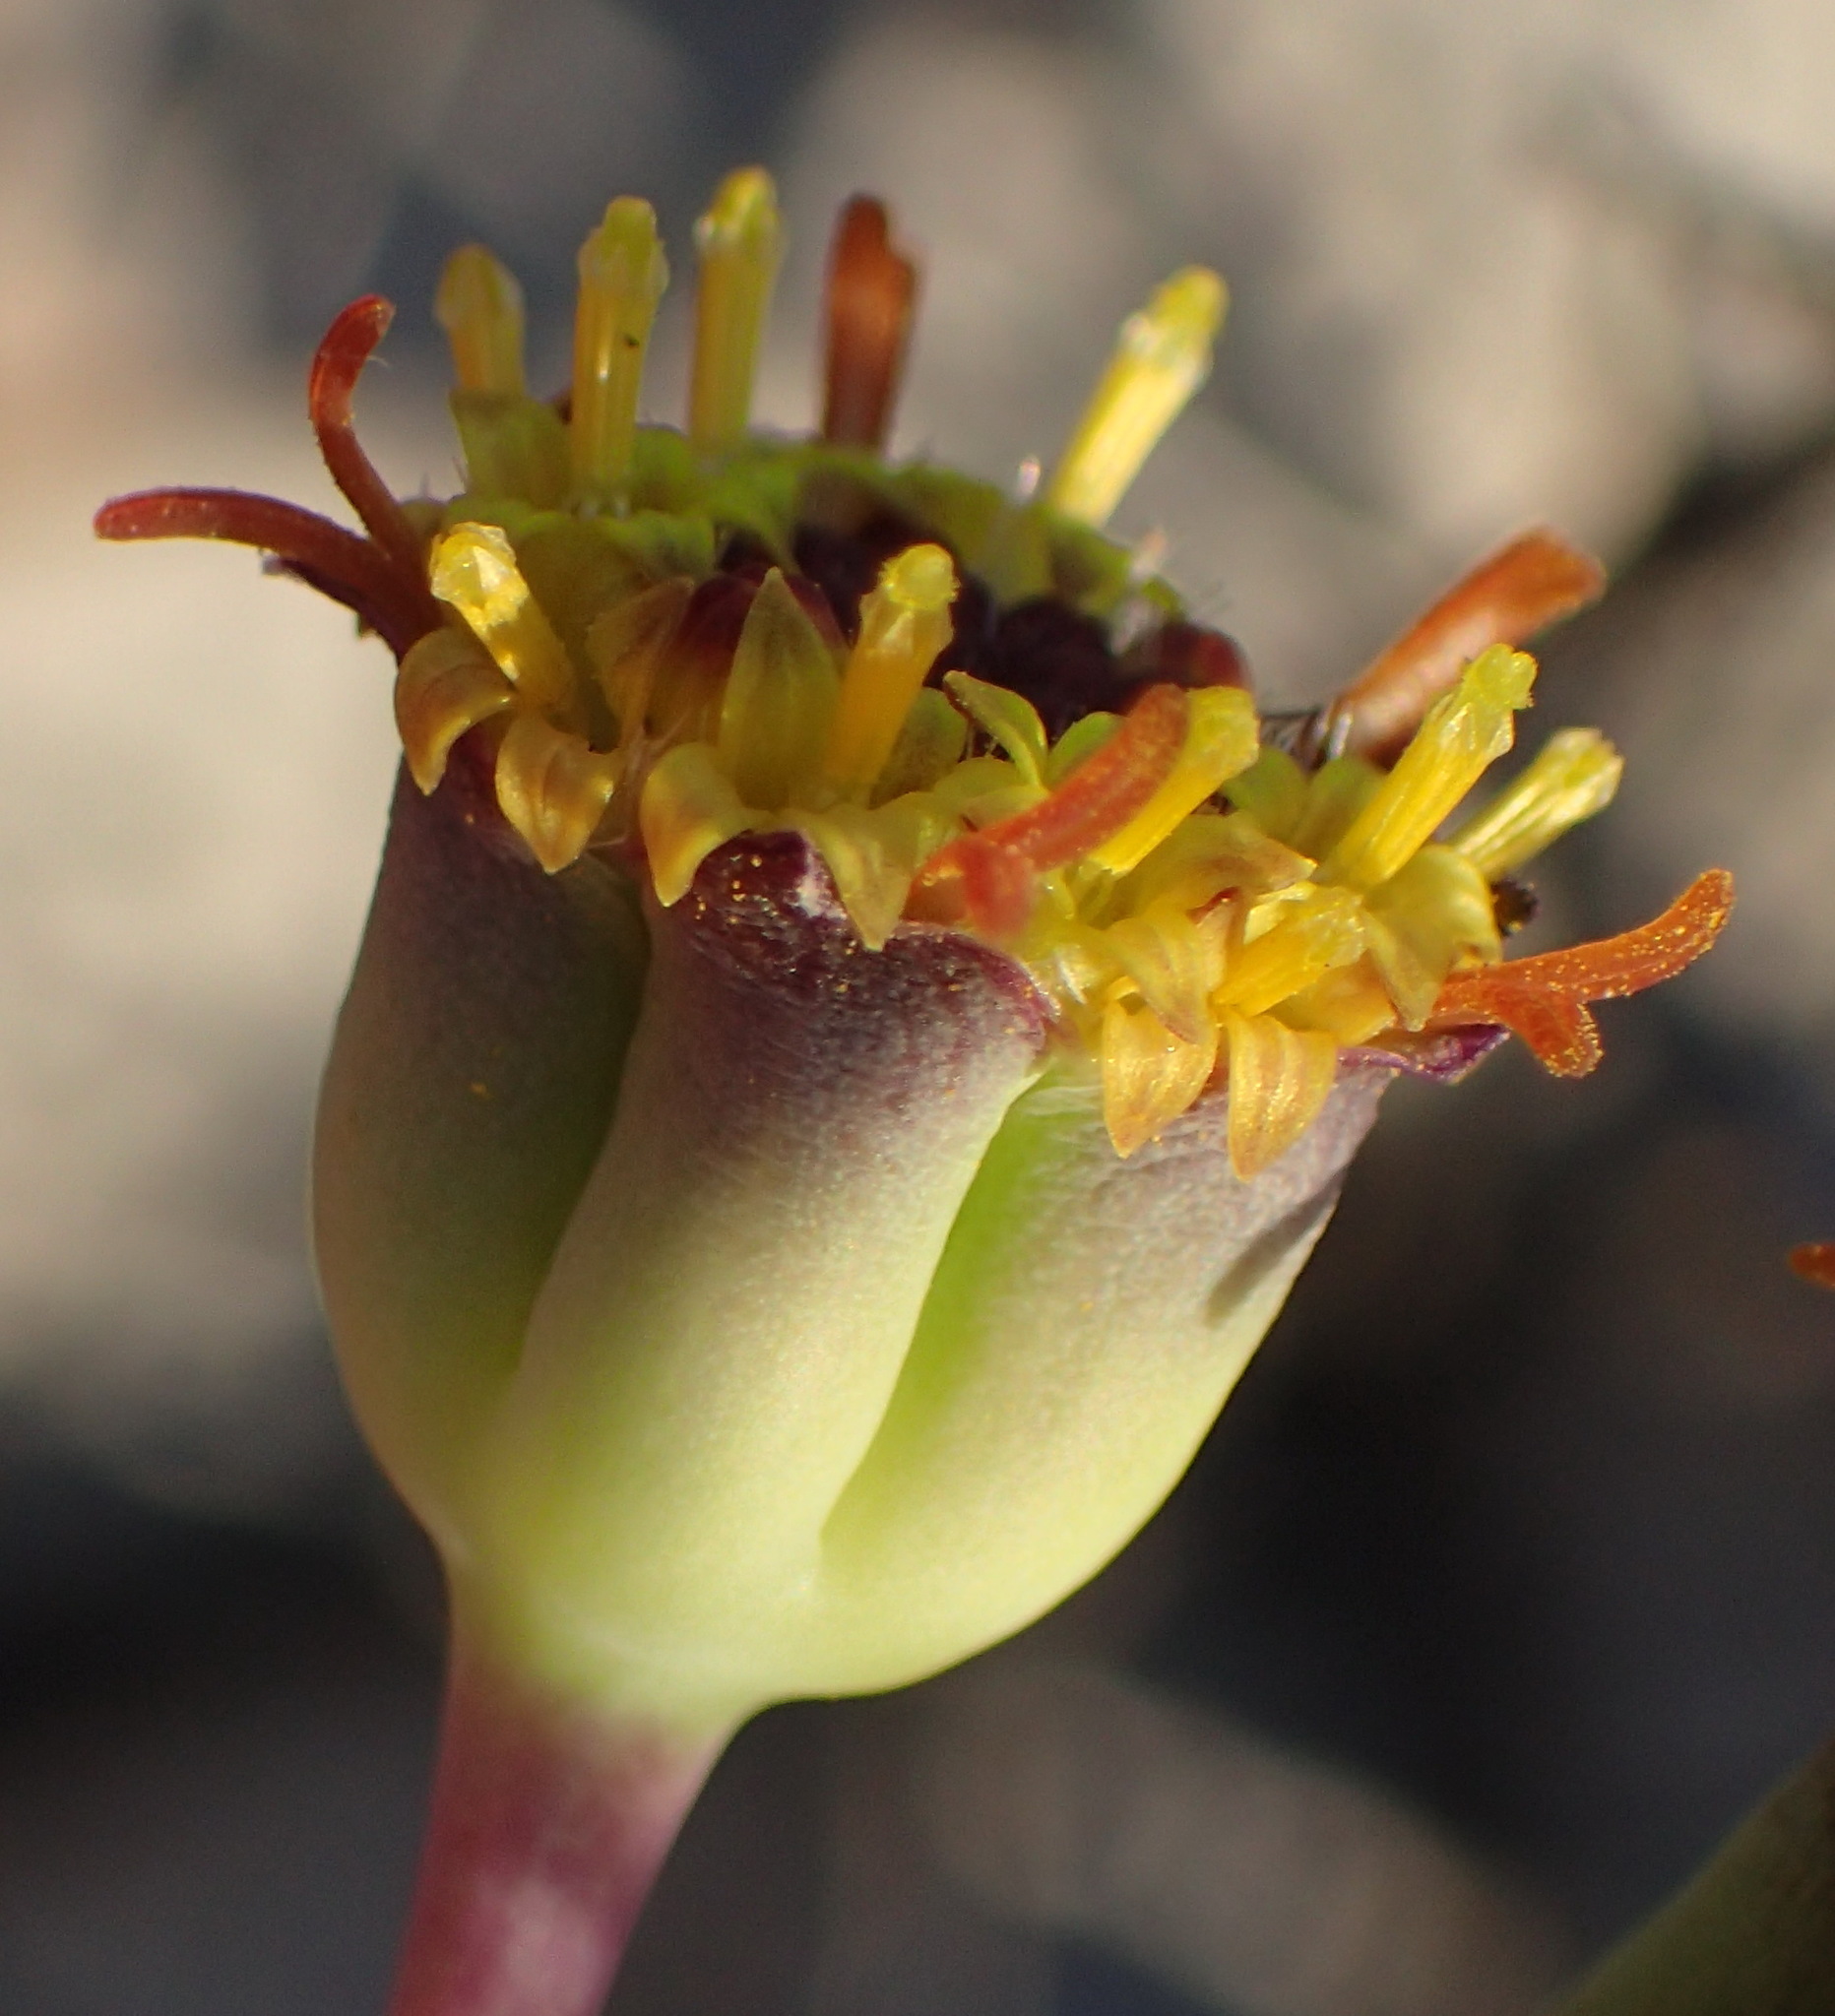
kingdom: Plantae
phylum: Tracheophyta
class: Magnoliopsida
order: Asterales
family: Asteraceae
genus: Othonna
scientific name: Othonna retrofracta
